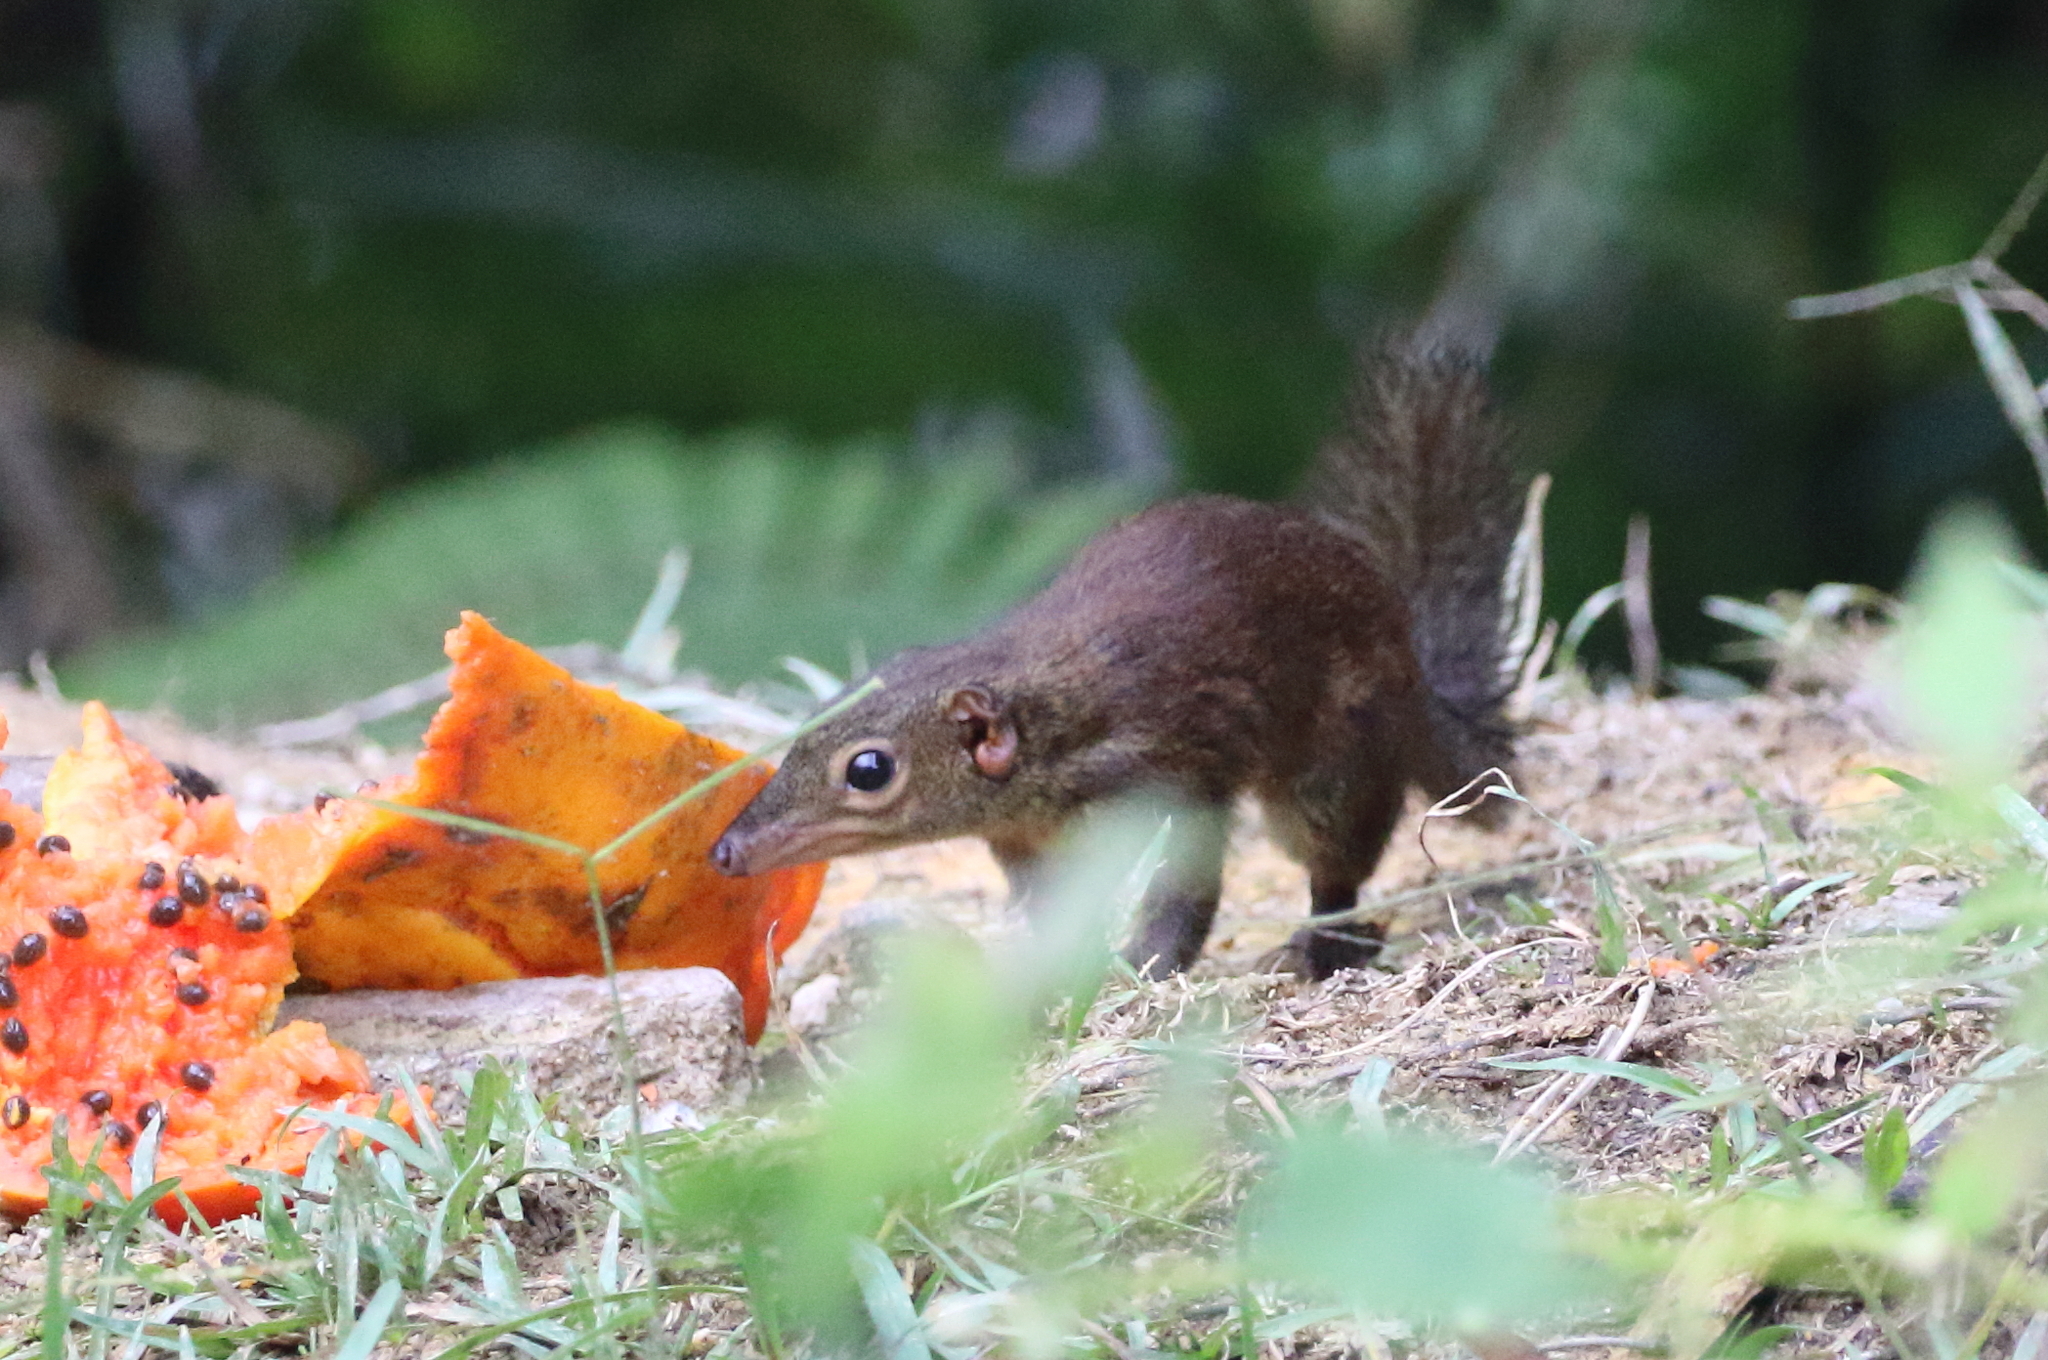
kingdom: Animalia
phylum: Chordata
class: Mammalia
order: Scandentia
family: Tupaiidae
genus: Tupaia
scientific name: Tupaia glis
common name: Common treeshrew
